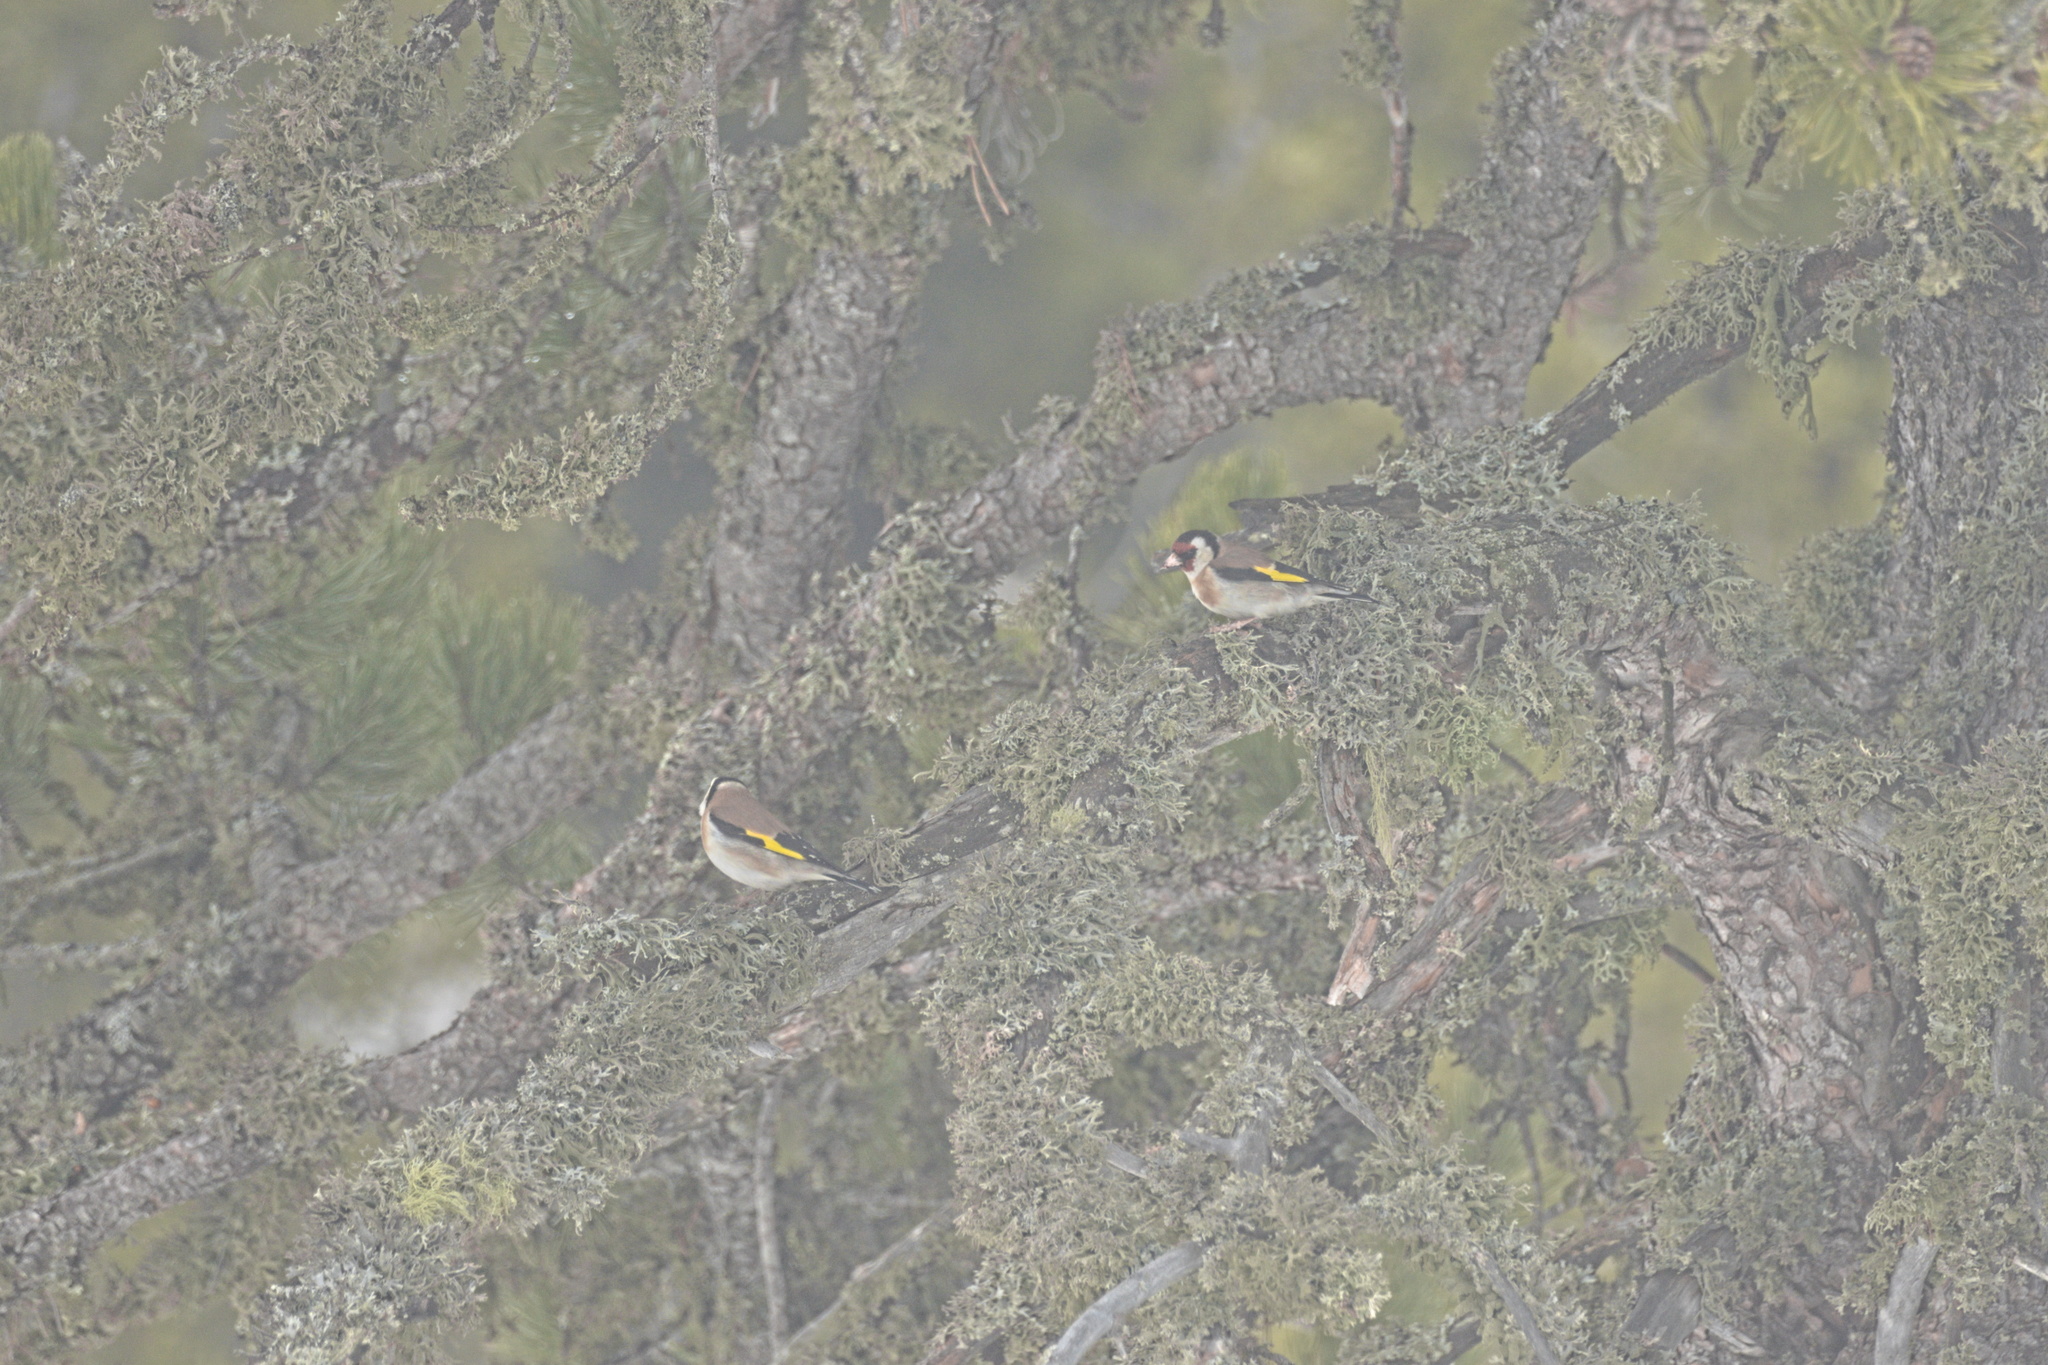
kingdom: Animalia
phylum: Chordata
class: Aves
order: Passeriformes
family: Fringillidae
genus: Carduelis
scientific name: Carduelis carduelis
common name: European goldfinch
